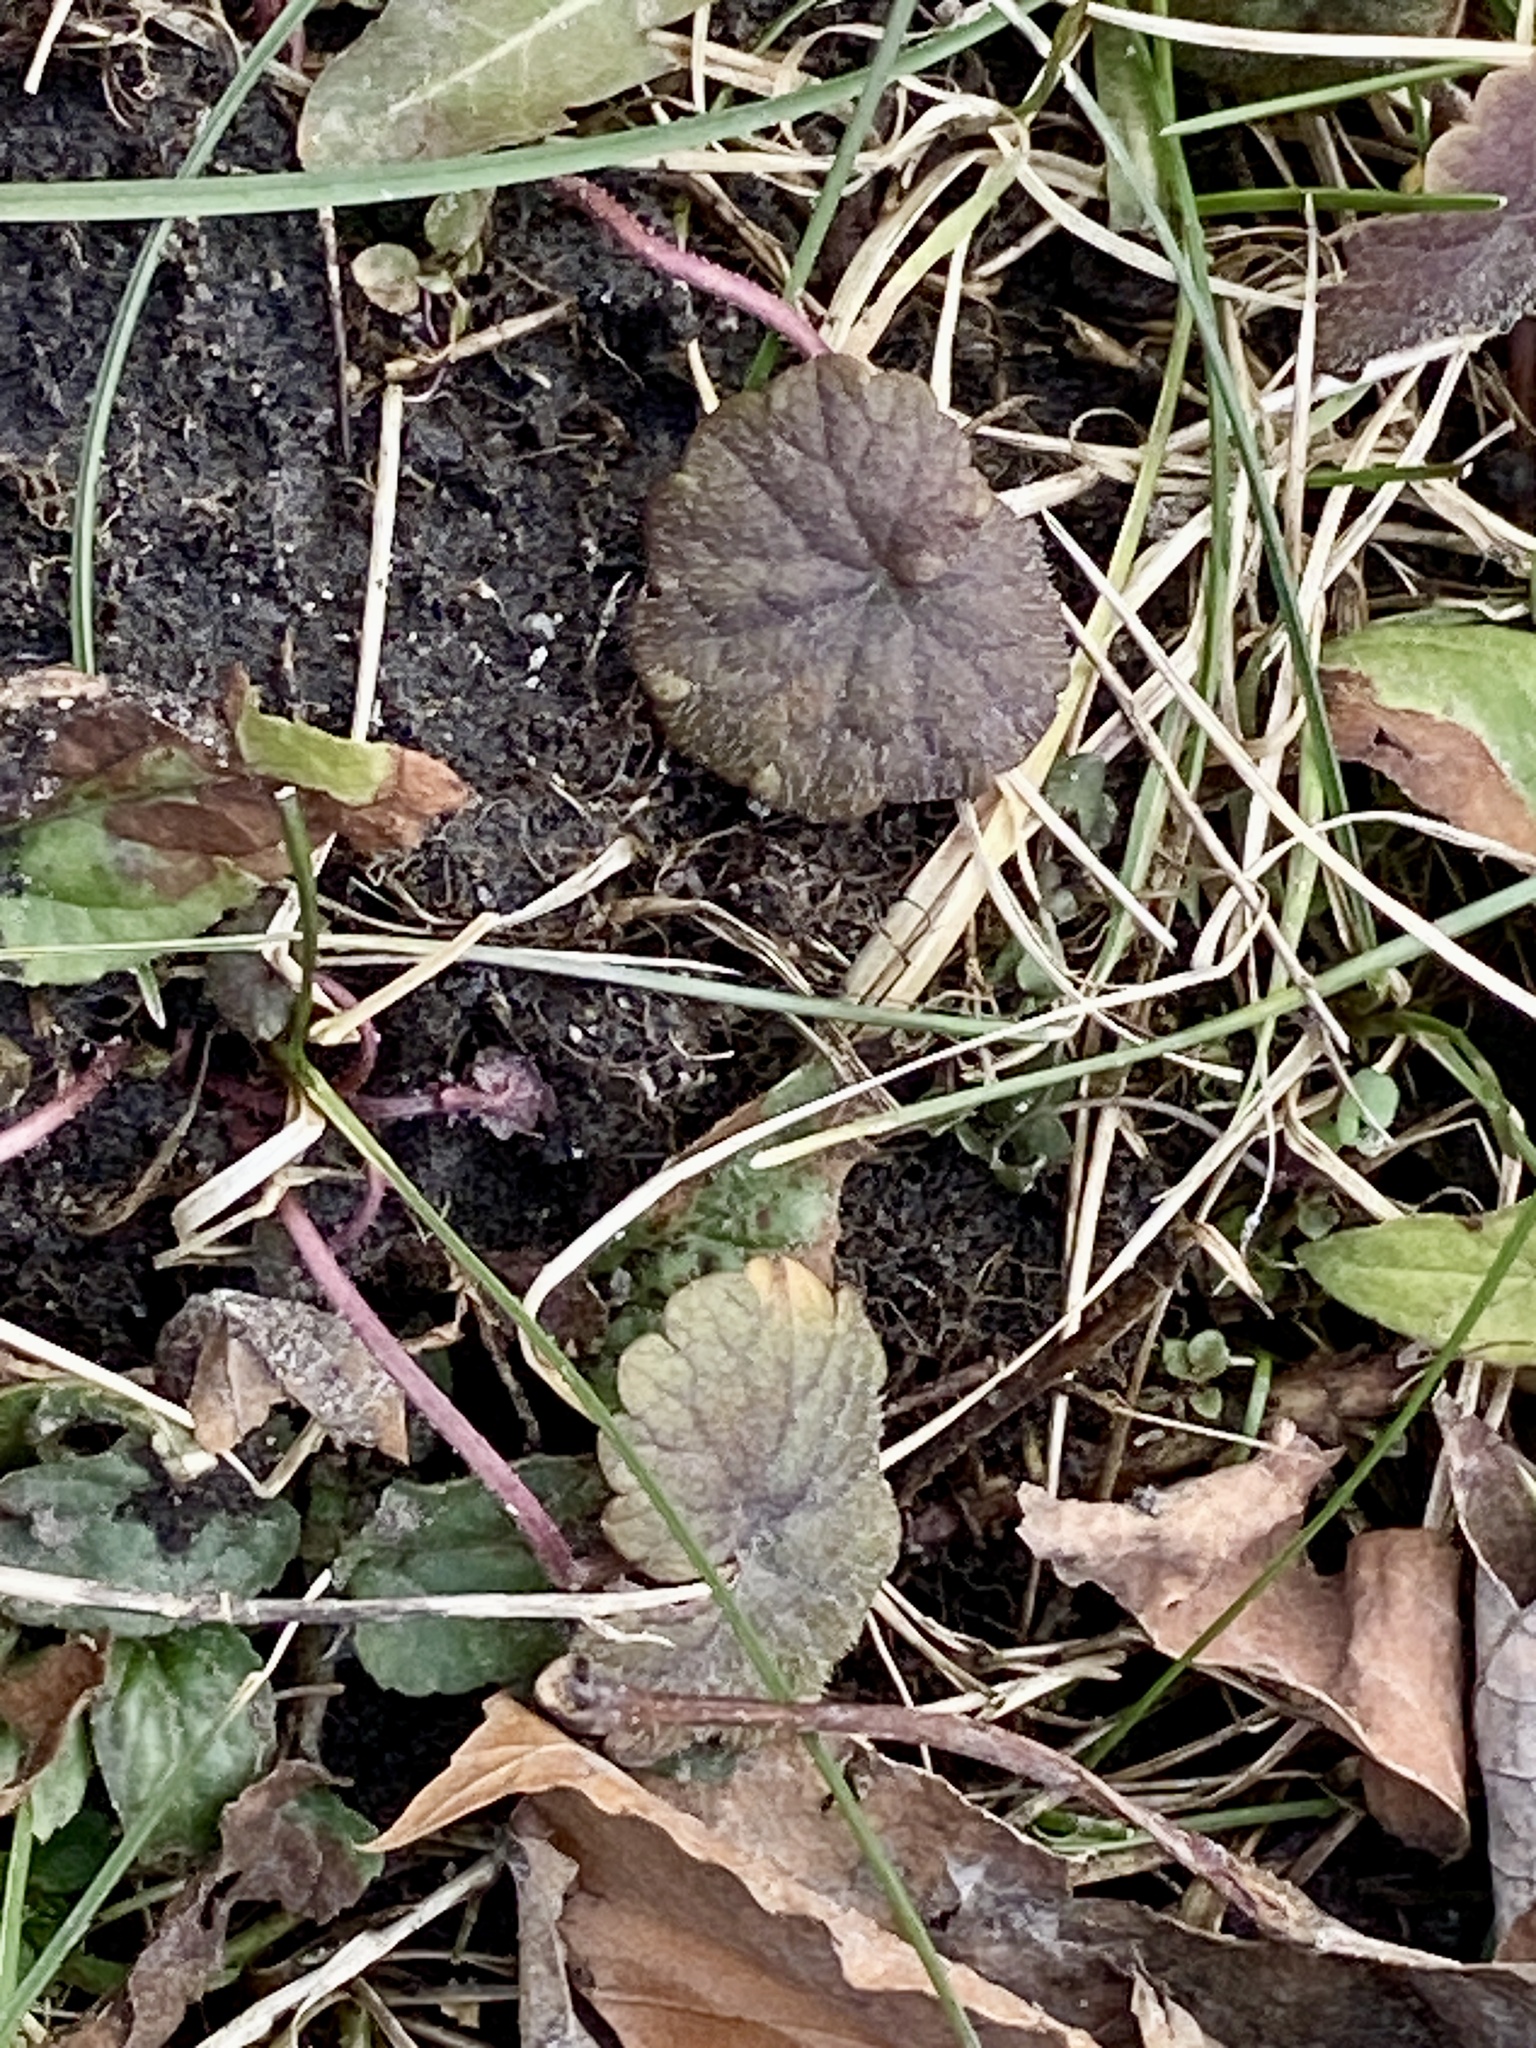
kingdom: Plantae
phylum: Tracheophyta
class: Magnoliopsida
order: Lamiales
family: Lamiaceae
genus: Glechoma
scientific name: Glechoma hederacea
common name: Ground ivy
